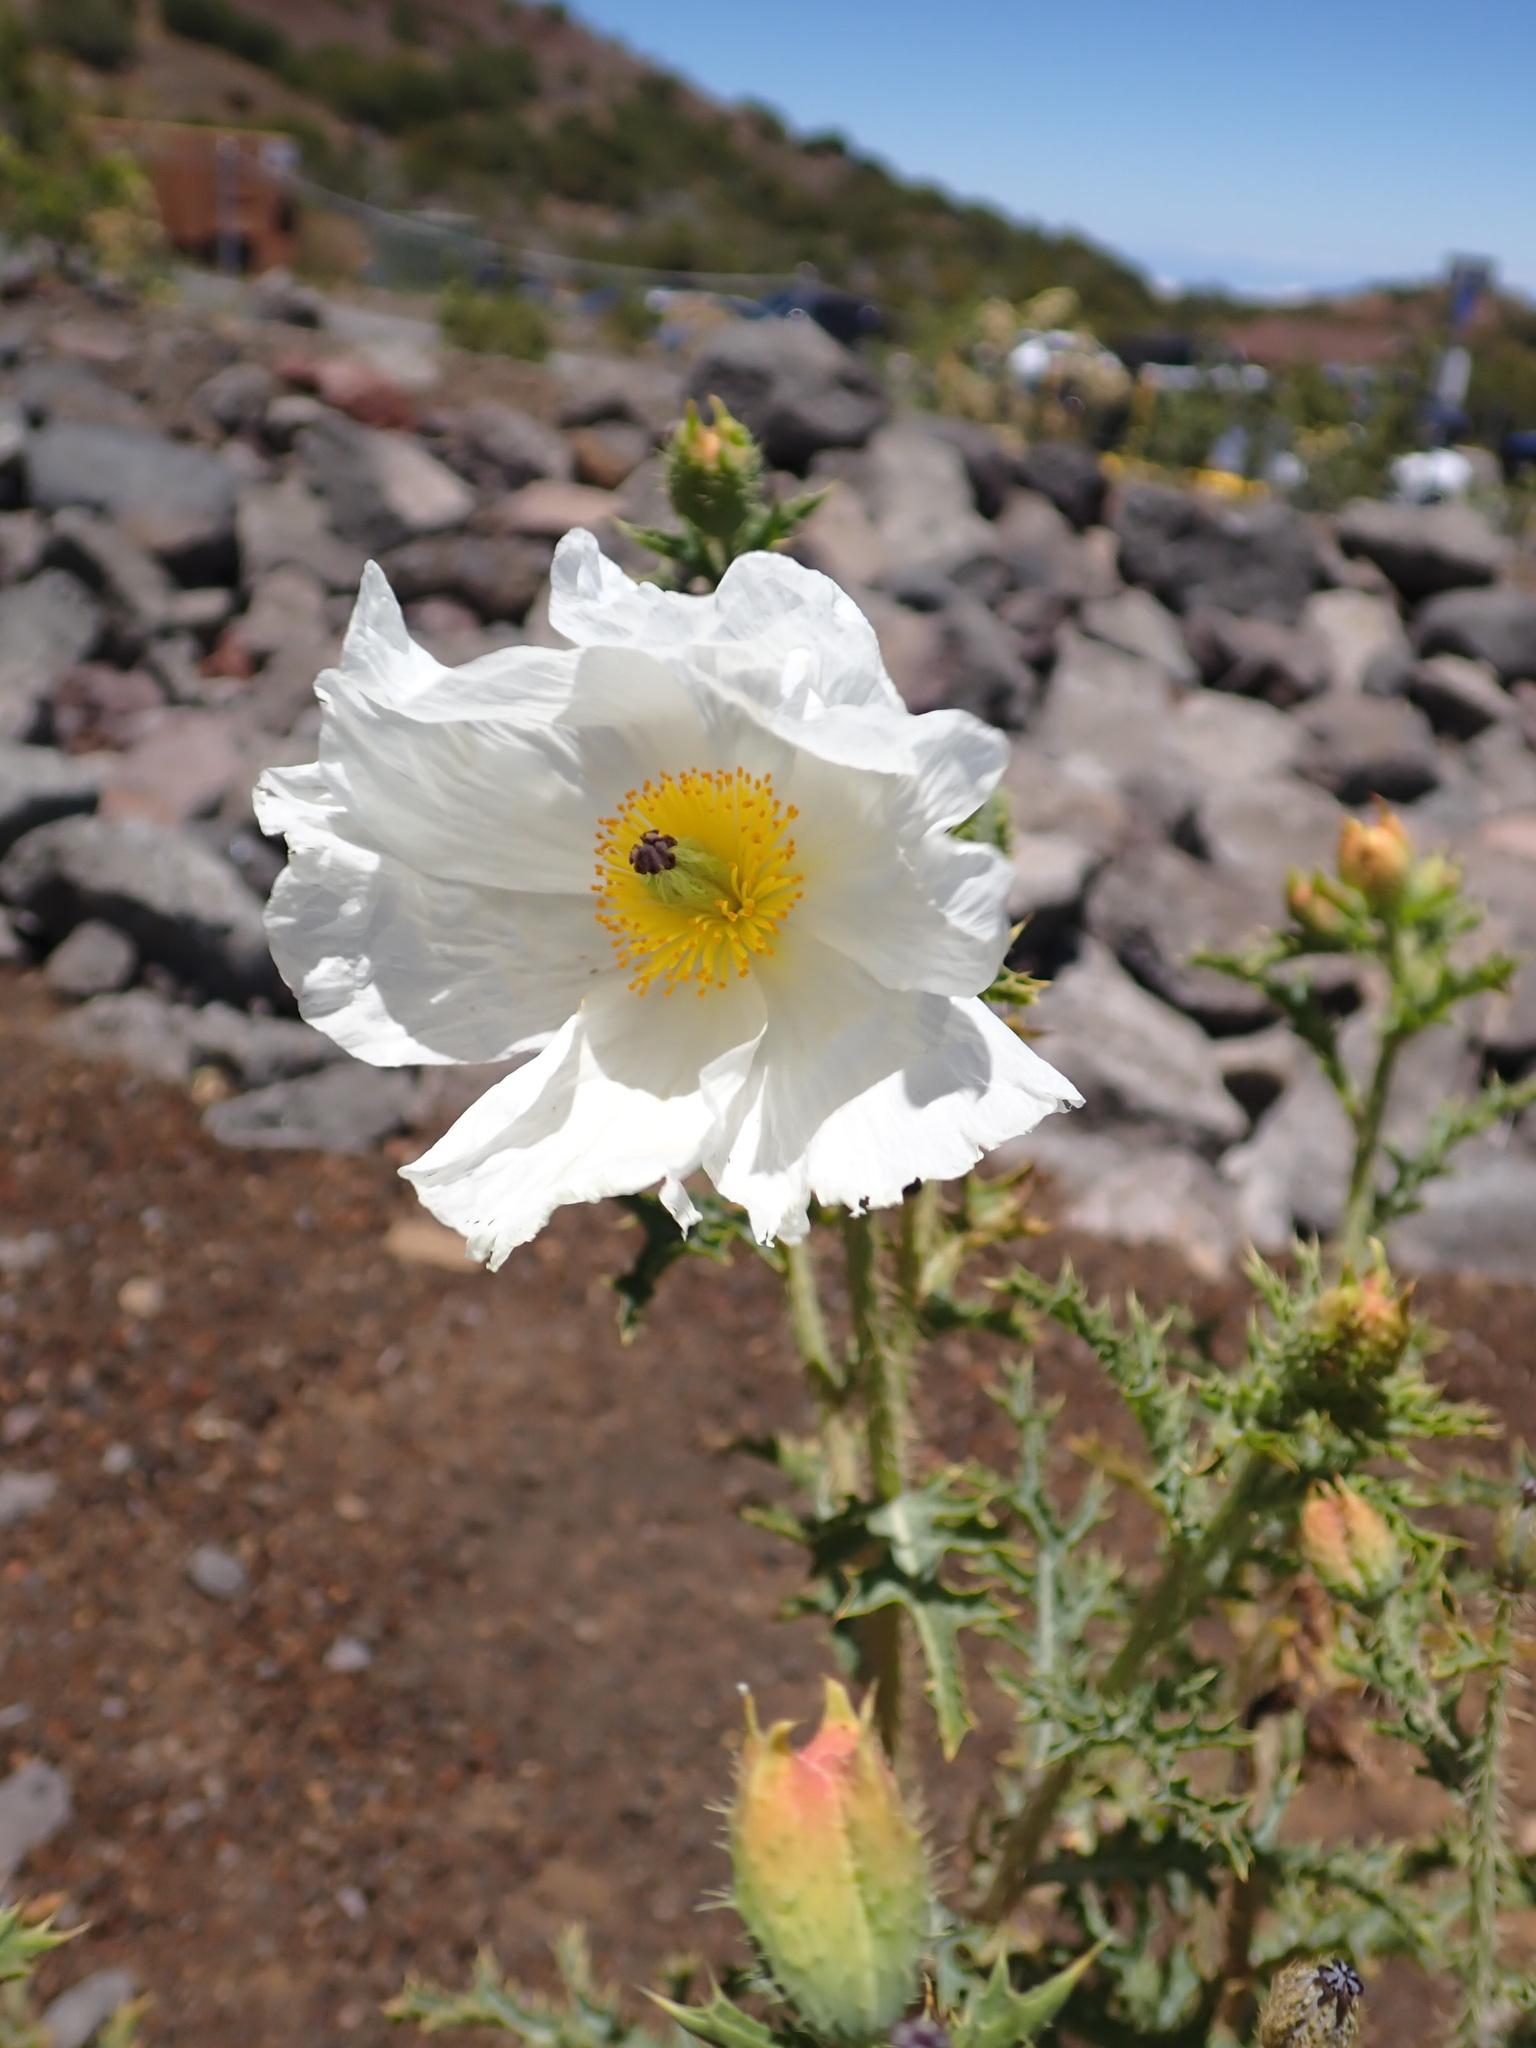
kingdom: Plantae
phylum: Tracheophyta
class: Magnoliopsida
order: Ranunculales
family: Papaveraceae
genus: Argemone
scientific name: Argemone glauca
